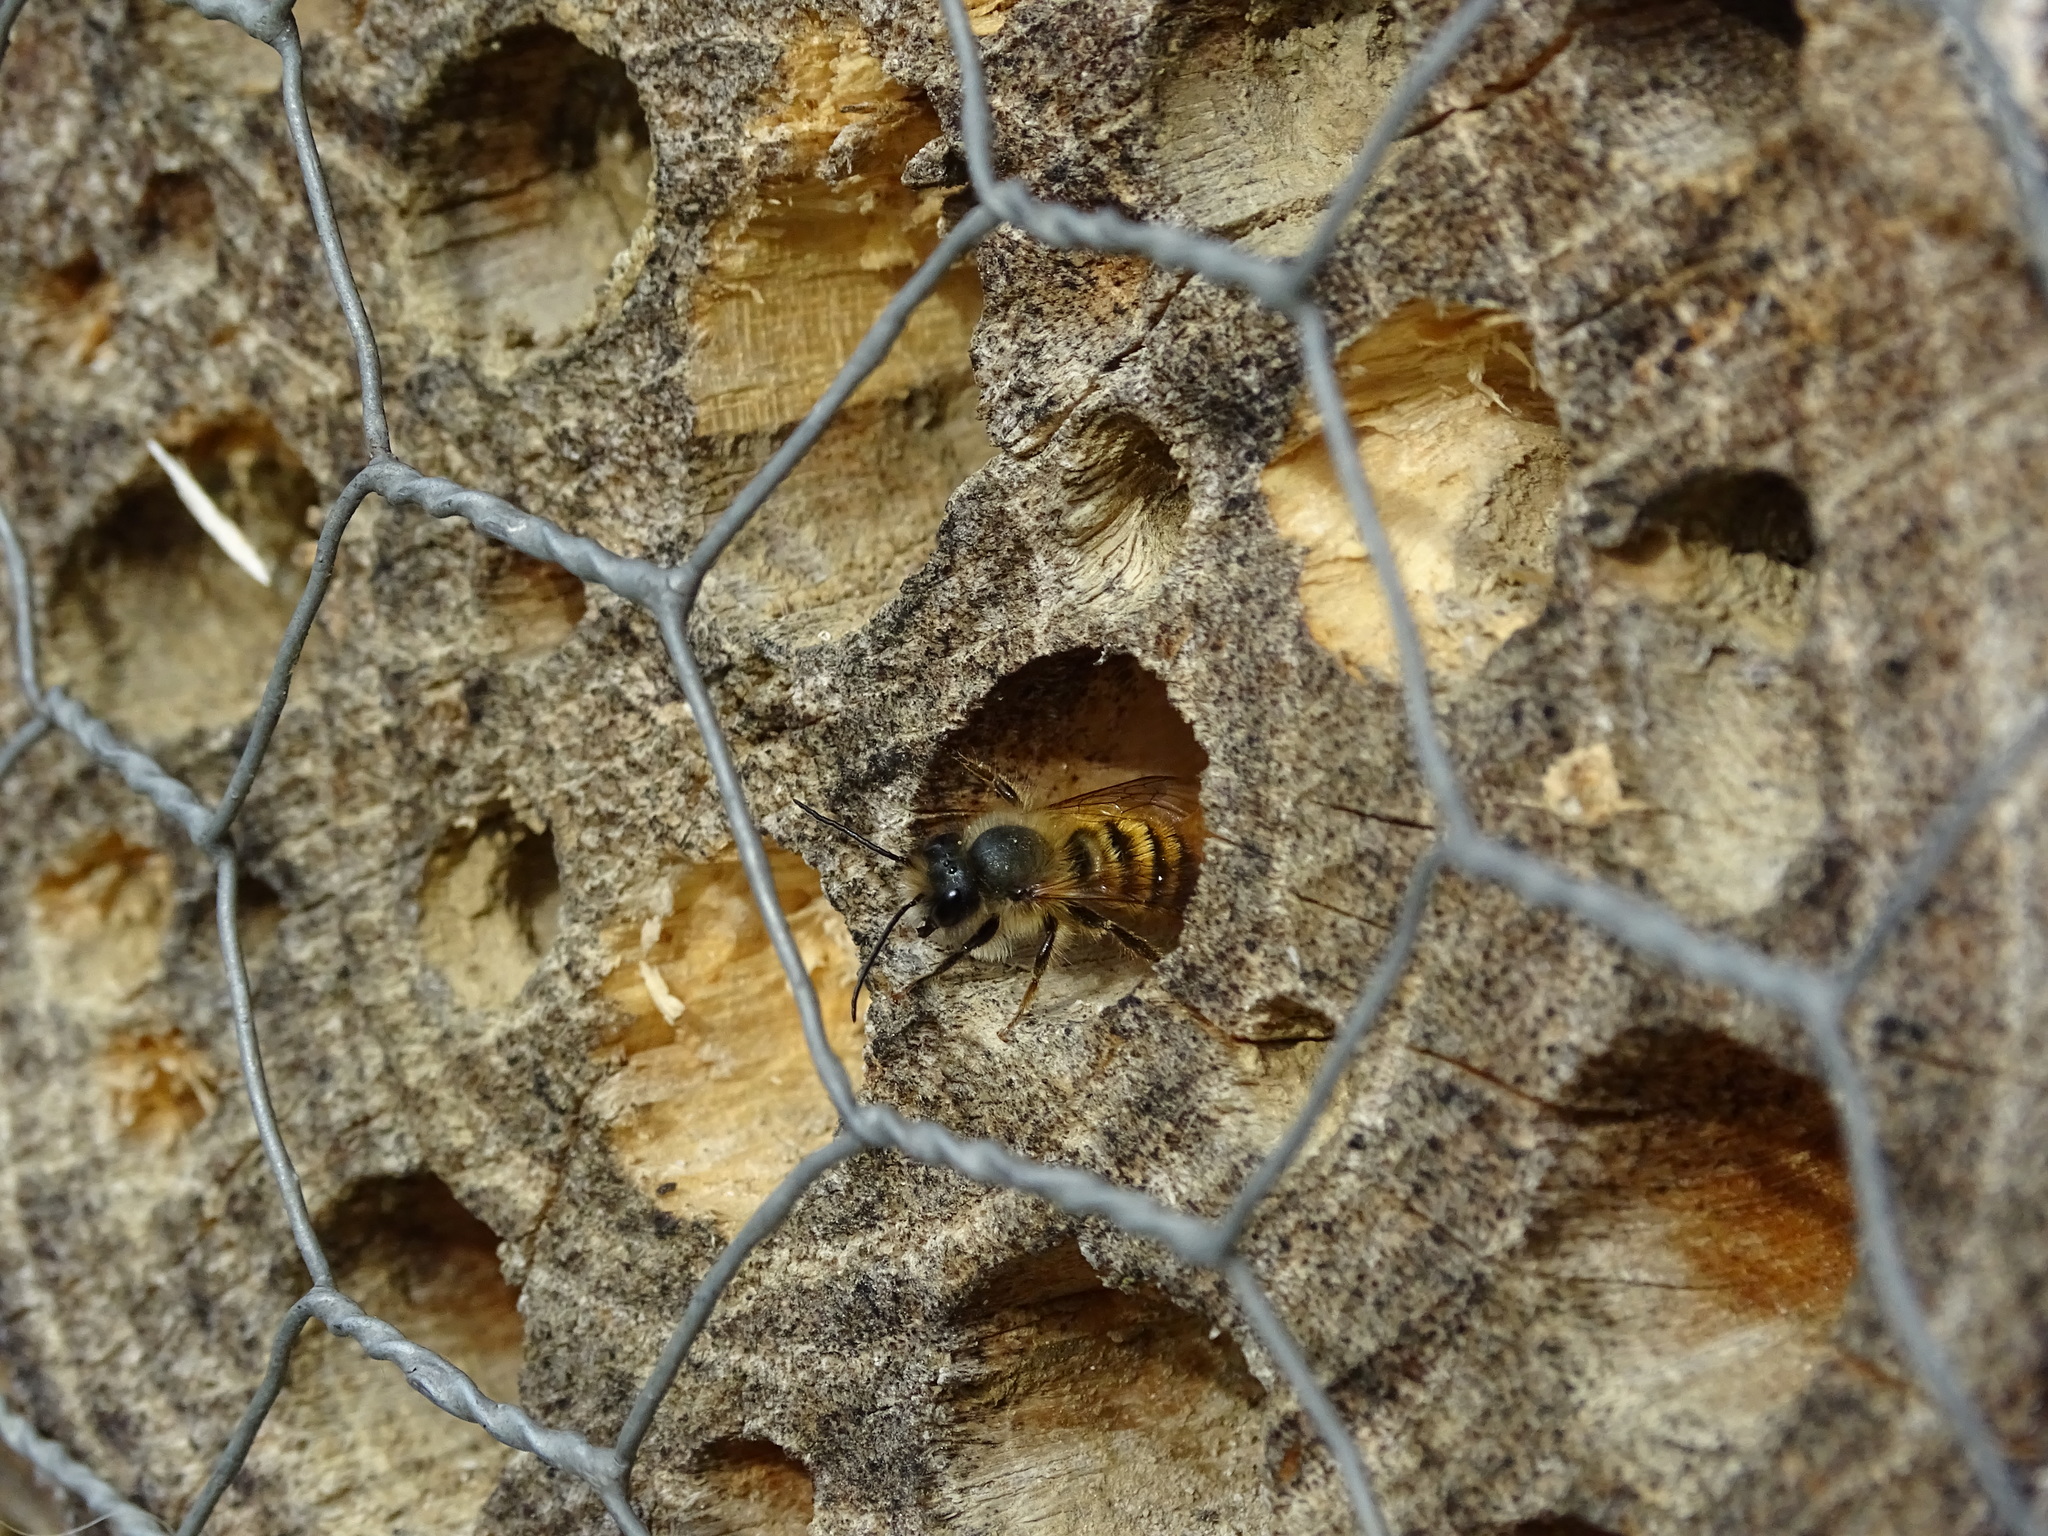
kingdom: Animalia
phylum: Arthropoda
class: Insecta
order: Hymenoptera
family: Megachilidae
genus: Osmia
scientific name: Osmia bicornis
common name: Red mason bee
